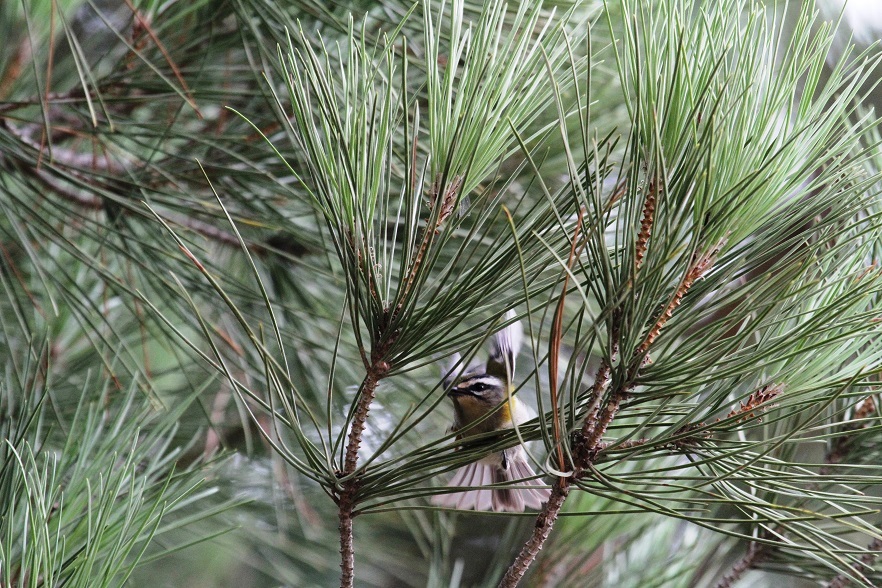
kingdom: Animalia
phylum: Chordata
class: Aves
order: Passeriformes
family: Regulidae
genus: Regulus
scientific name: Regulus ignicapilla
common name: Firecrest
